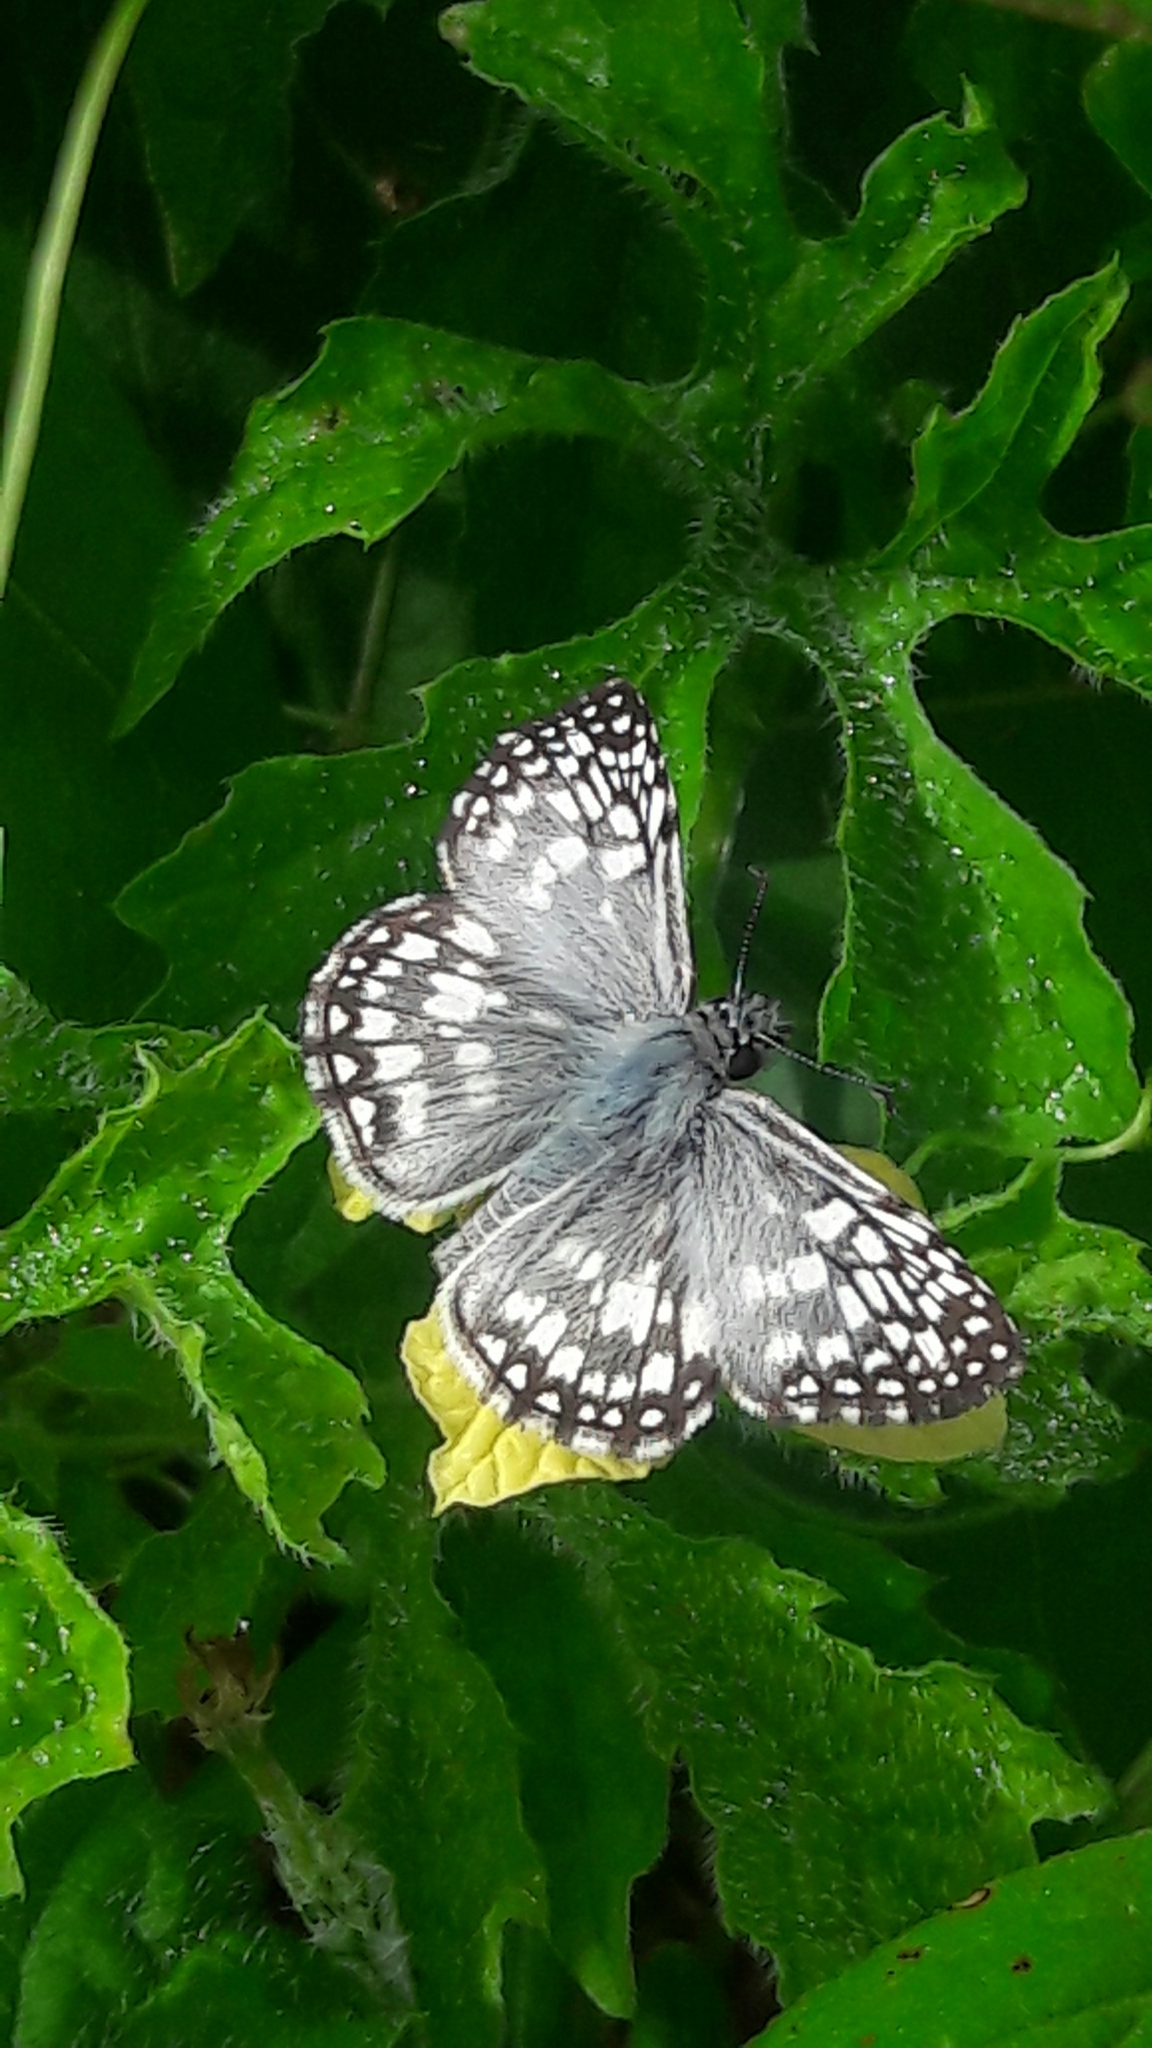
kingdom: Animalia
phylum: Arthropoda
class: Insecta
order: Lepidoptera
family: Hesperiidae
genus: Pyrgus
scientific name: Pyrgus oileus
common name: Tropical checkered-skipper
